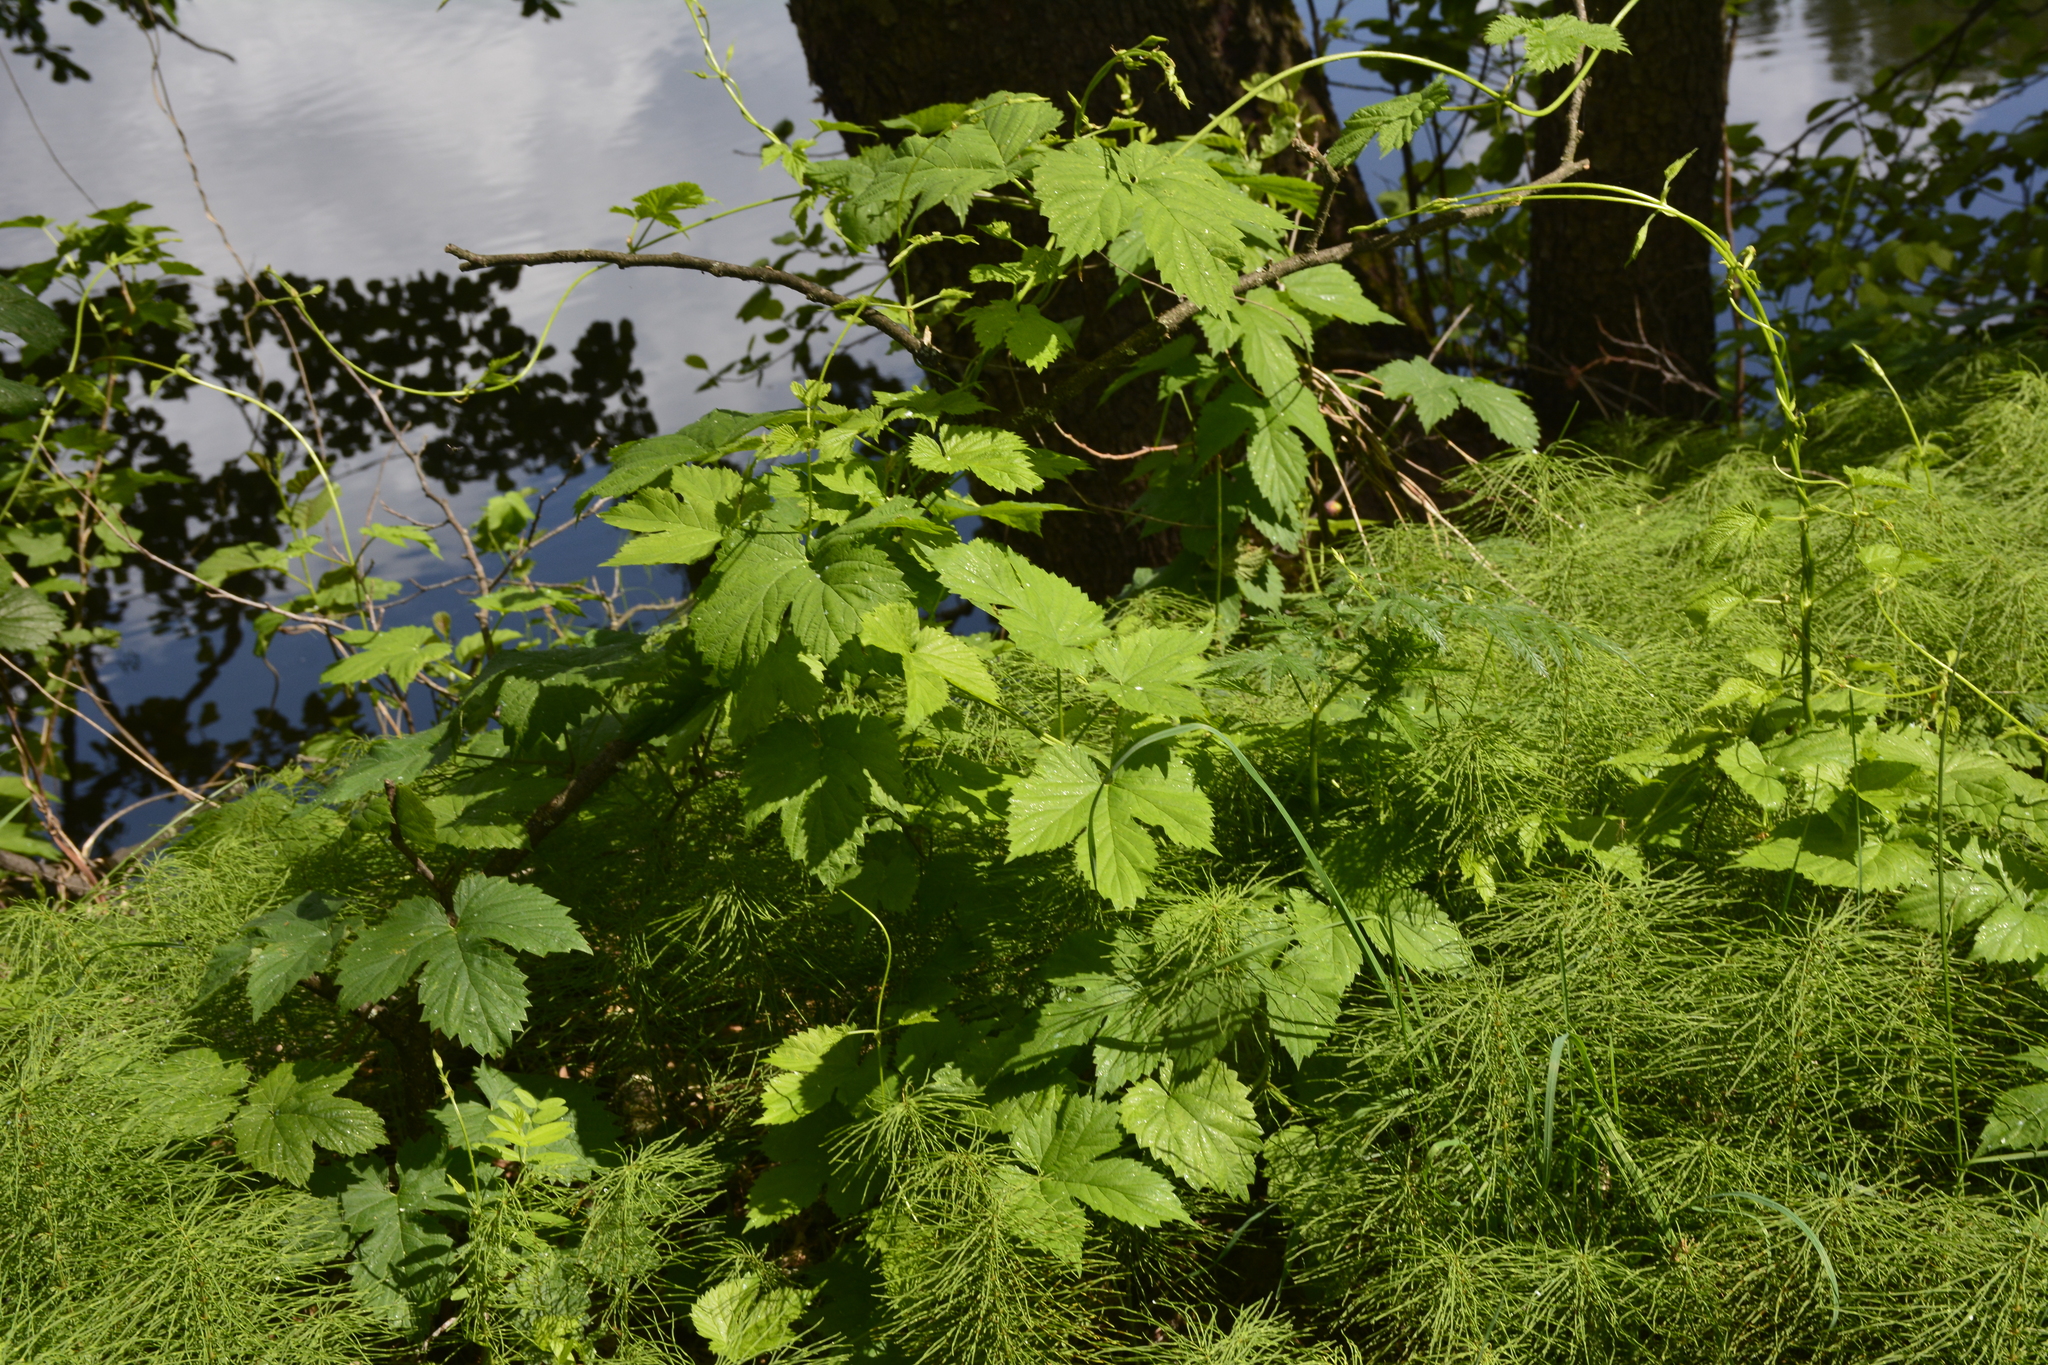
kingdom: Plantae
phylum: Tracheophyta
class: Magnoliopsida
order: Rosales
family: Cannabaceae
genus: Humulus
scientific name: Humulus lupulus
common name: Hop
